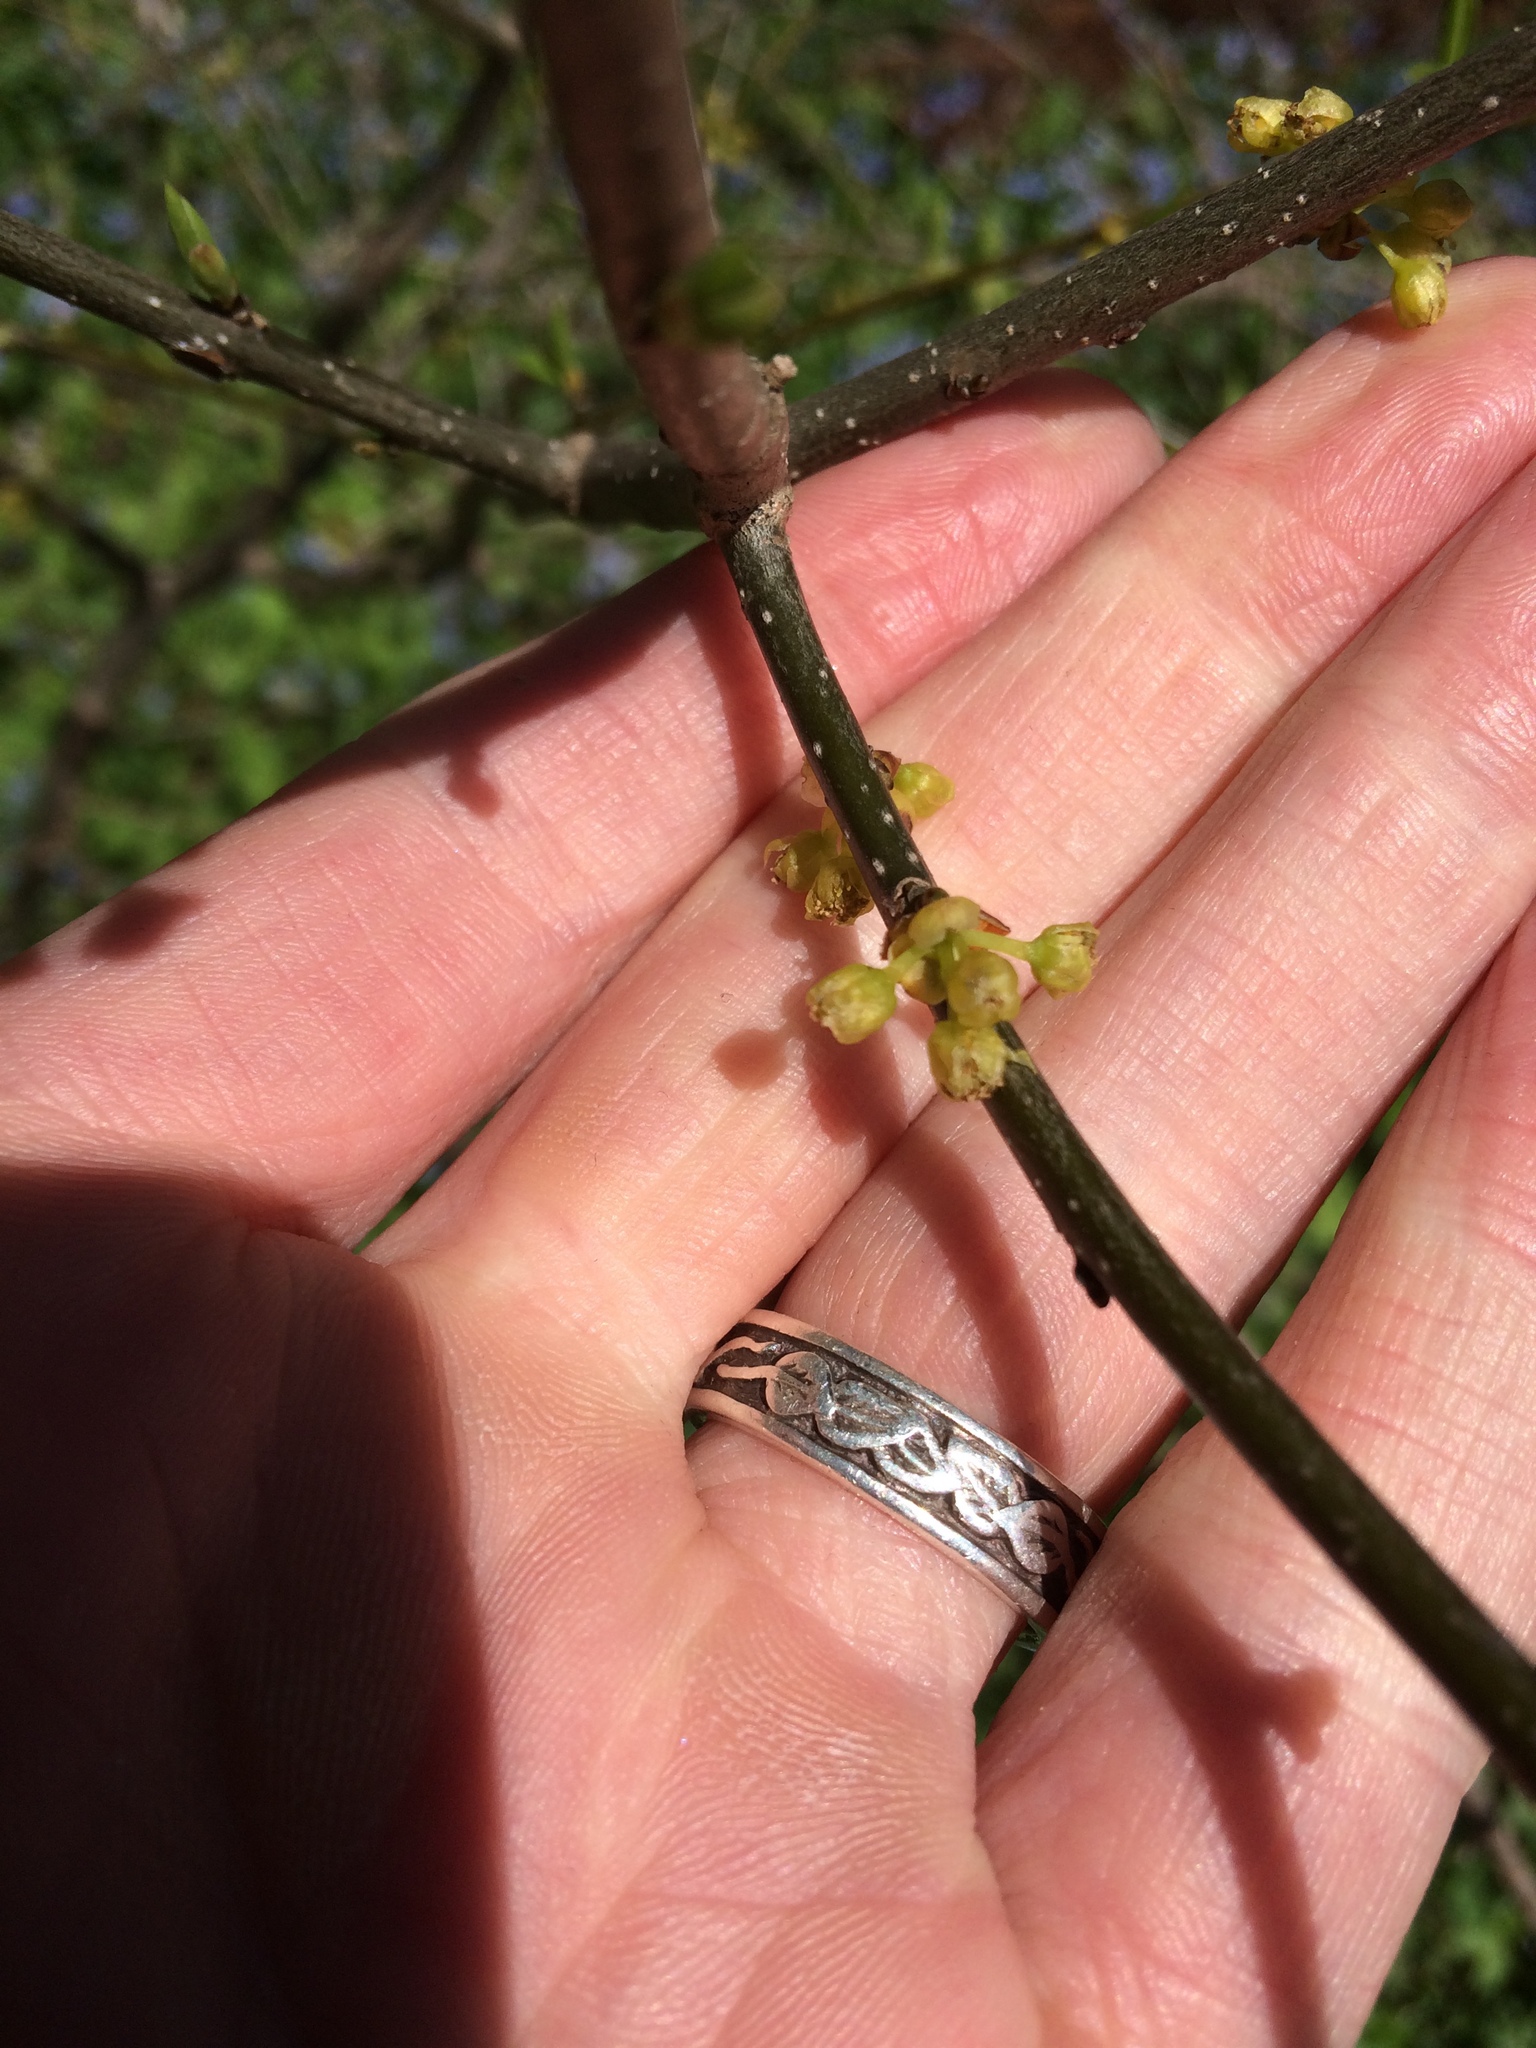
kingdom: Plantae
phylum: Tracheophyta
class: Magnoliopsida
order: Laurales
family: Lauraceae
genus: Lindera
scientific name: Lindera benzoin
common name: Spicebush
